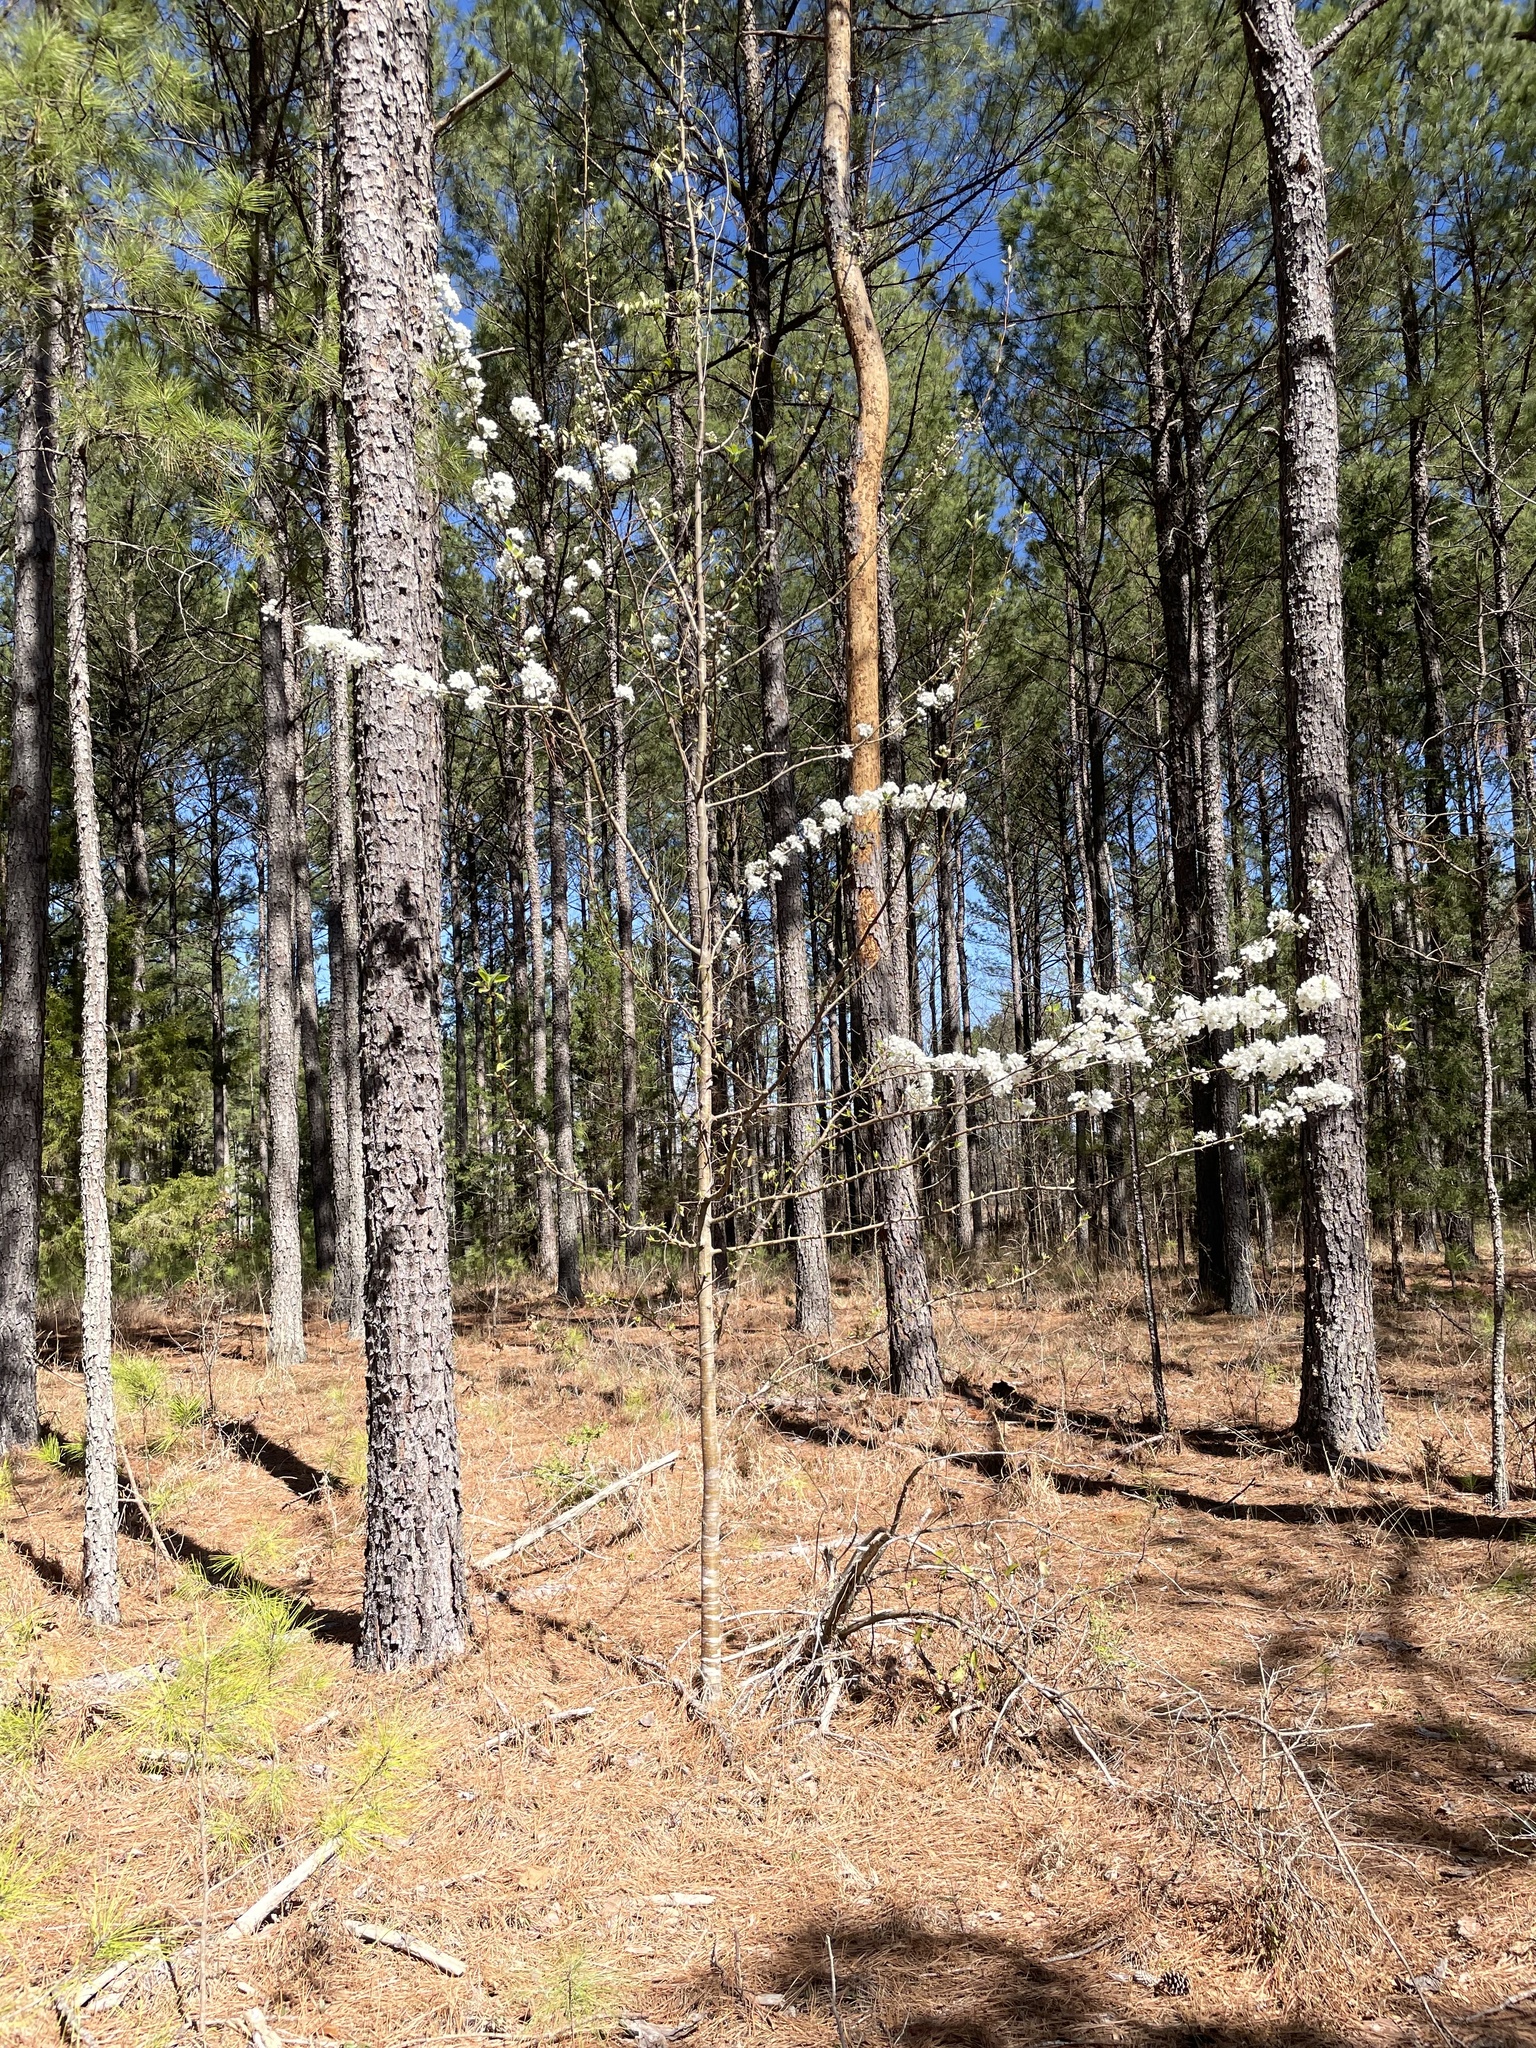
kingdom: Plantae
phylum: Tracheophyta
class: Magnoliopsida
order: Rosales
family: Rosaceae
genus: Pyrus
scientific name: Pyrus calleryana
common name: Callery pear
